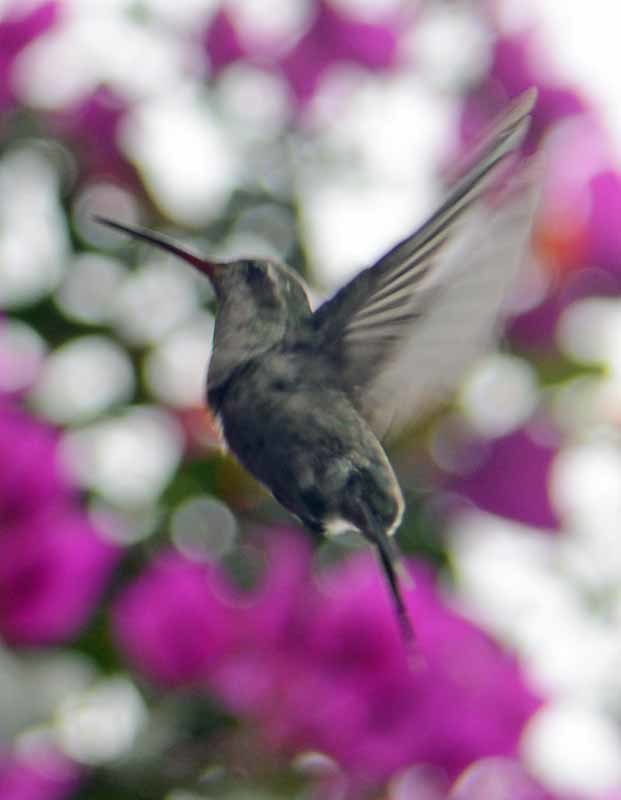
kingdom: Animalia
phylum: Chordata
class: Aves
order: Apodiformes
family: Trochilidae
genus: Cynanthus
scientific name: Cynanthus latirostris
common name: Broad-billed hummingbird
